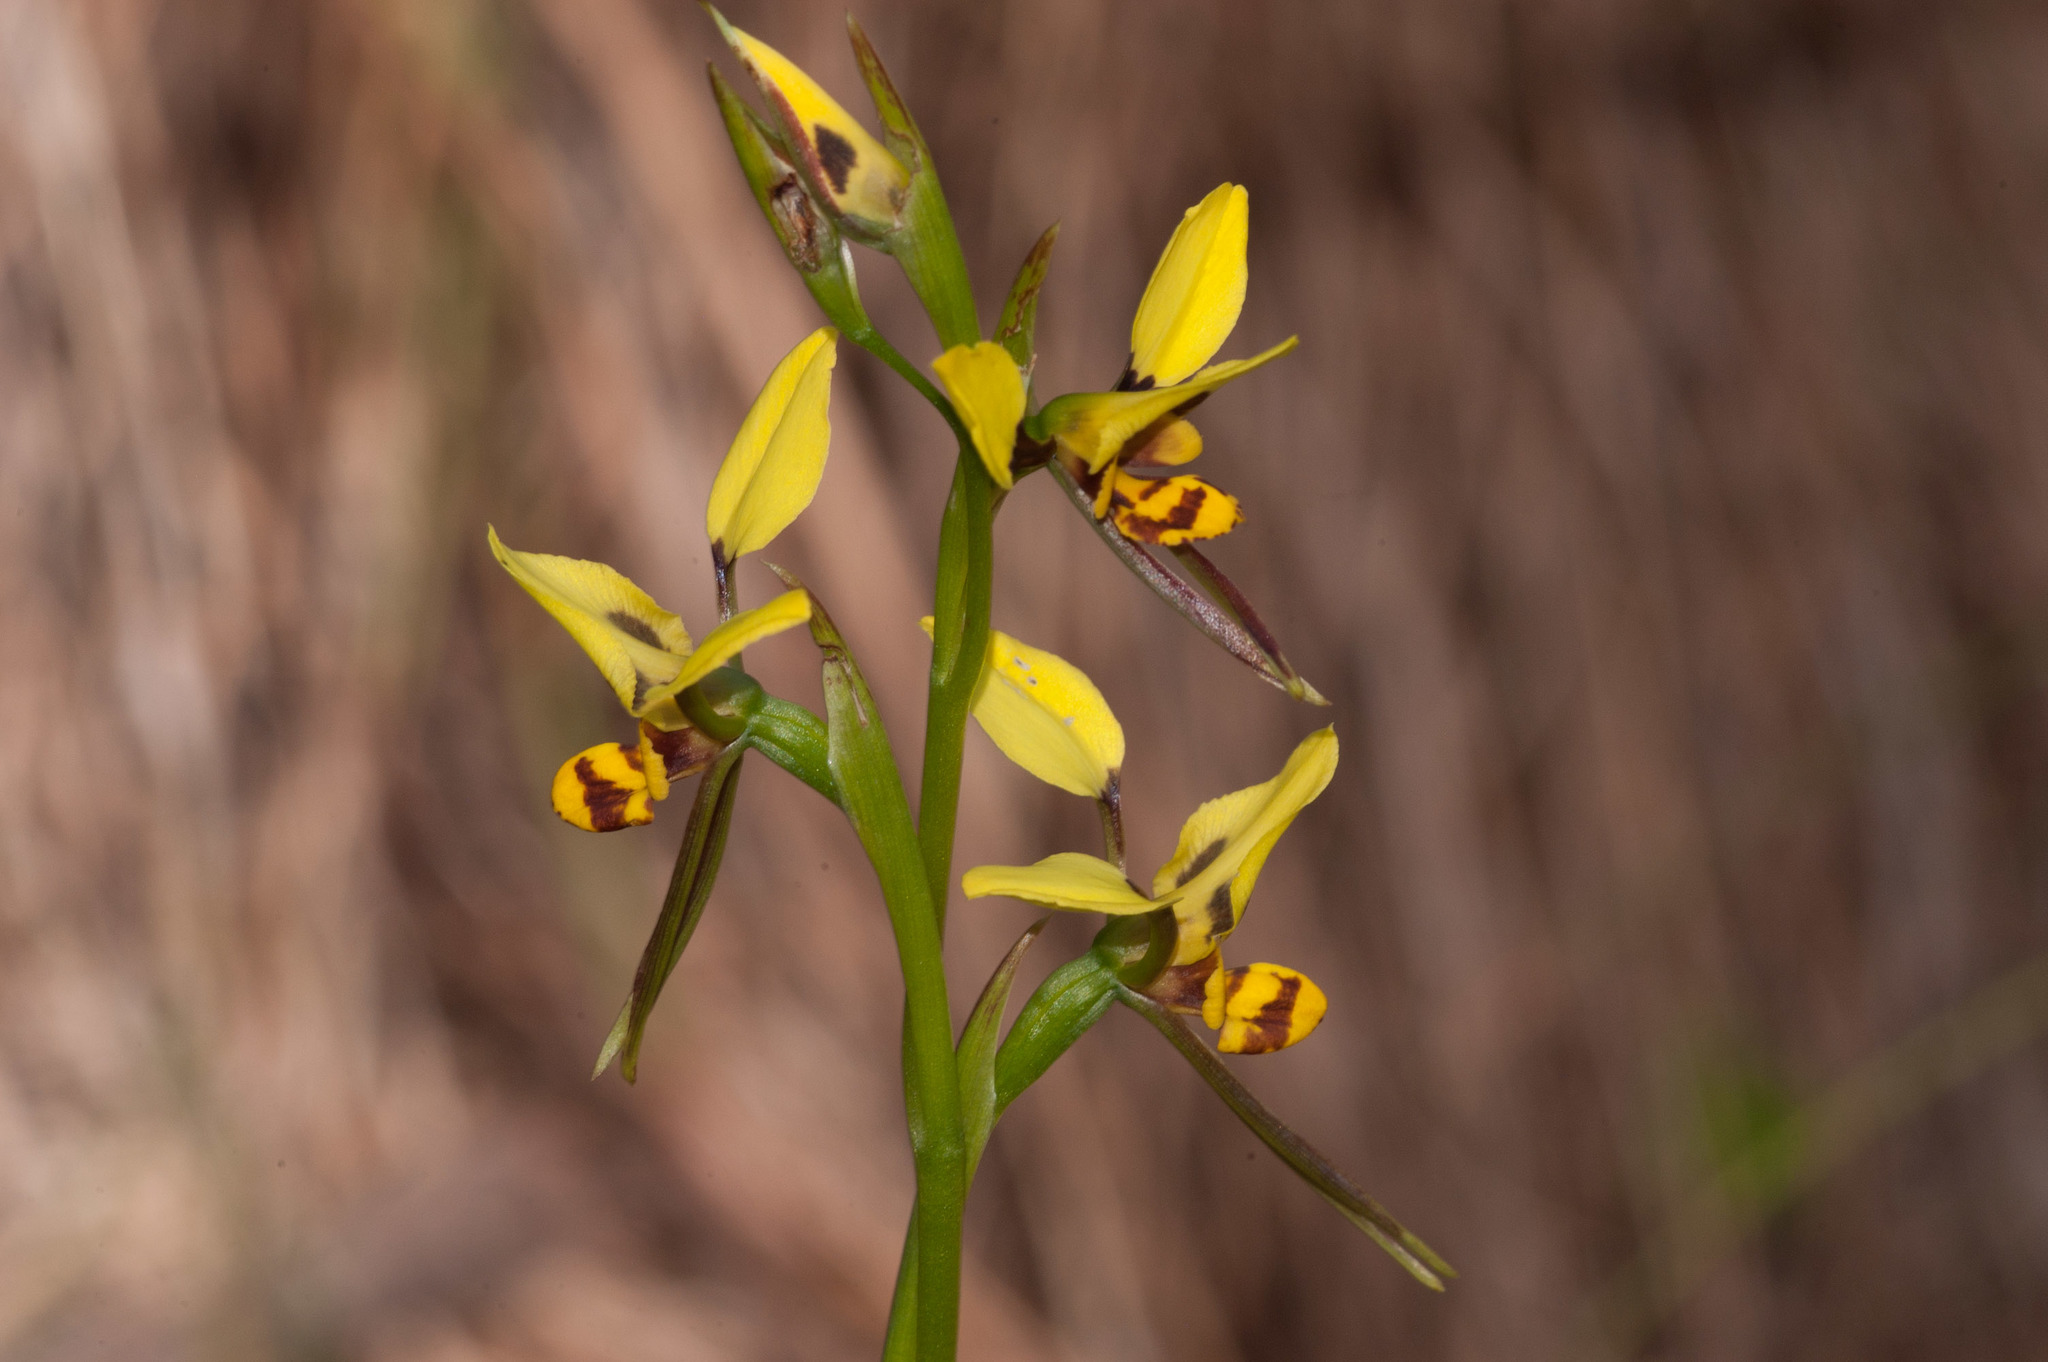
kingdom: Plantae
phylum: Tracheophyta
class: Liliopsida
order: Asparagales
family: Orchidaceae
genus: Diuris
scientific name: Diuris sulphurea
